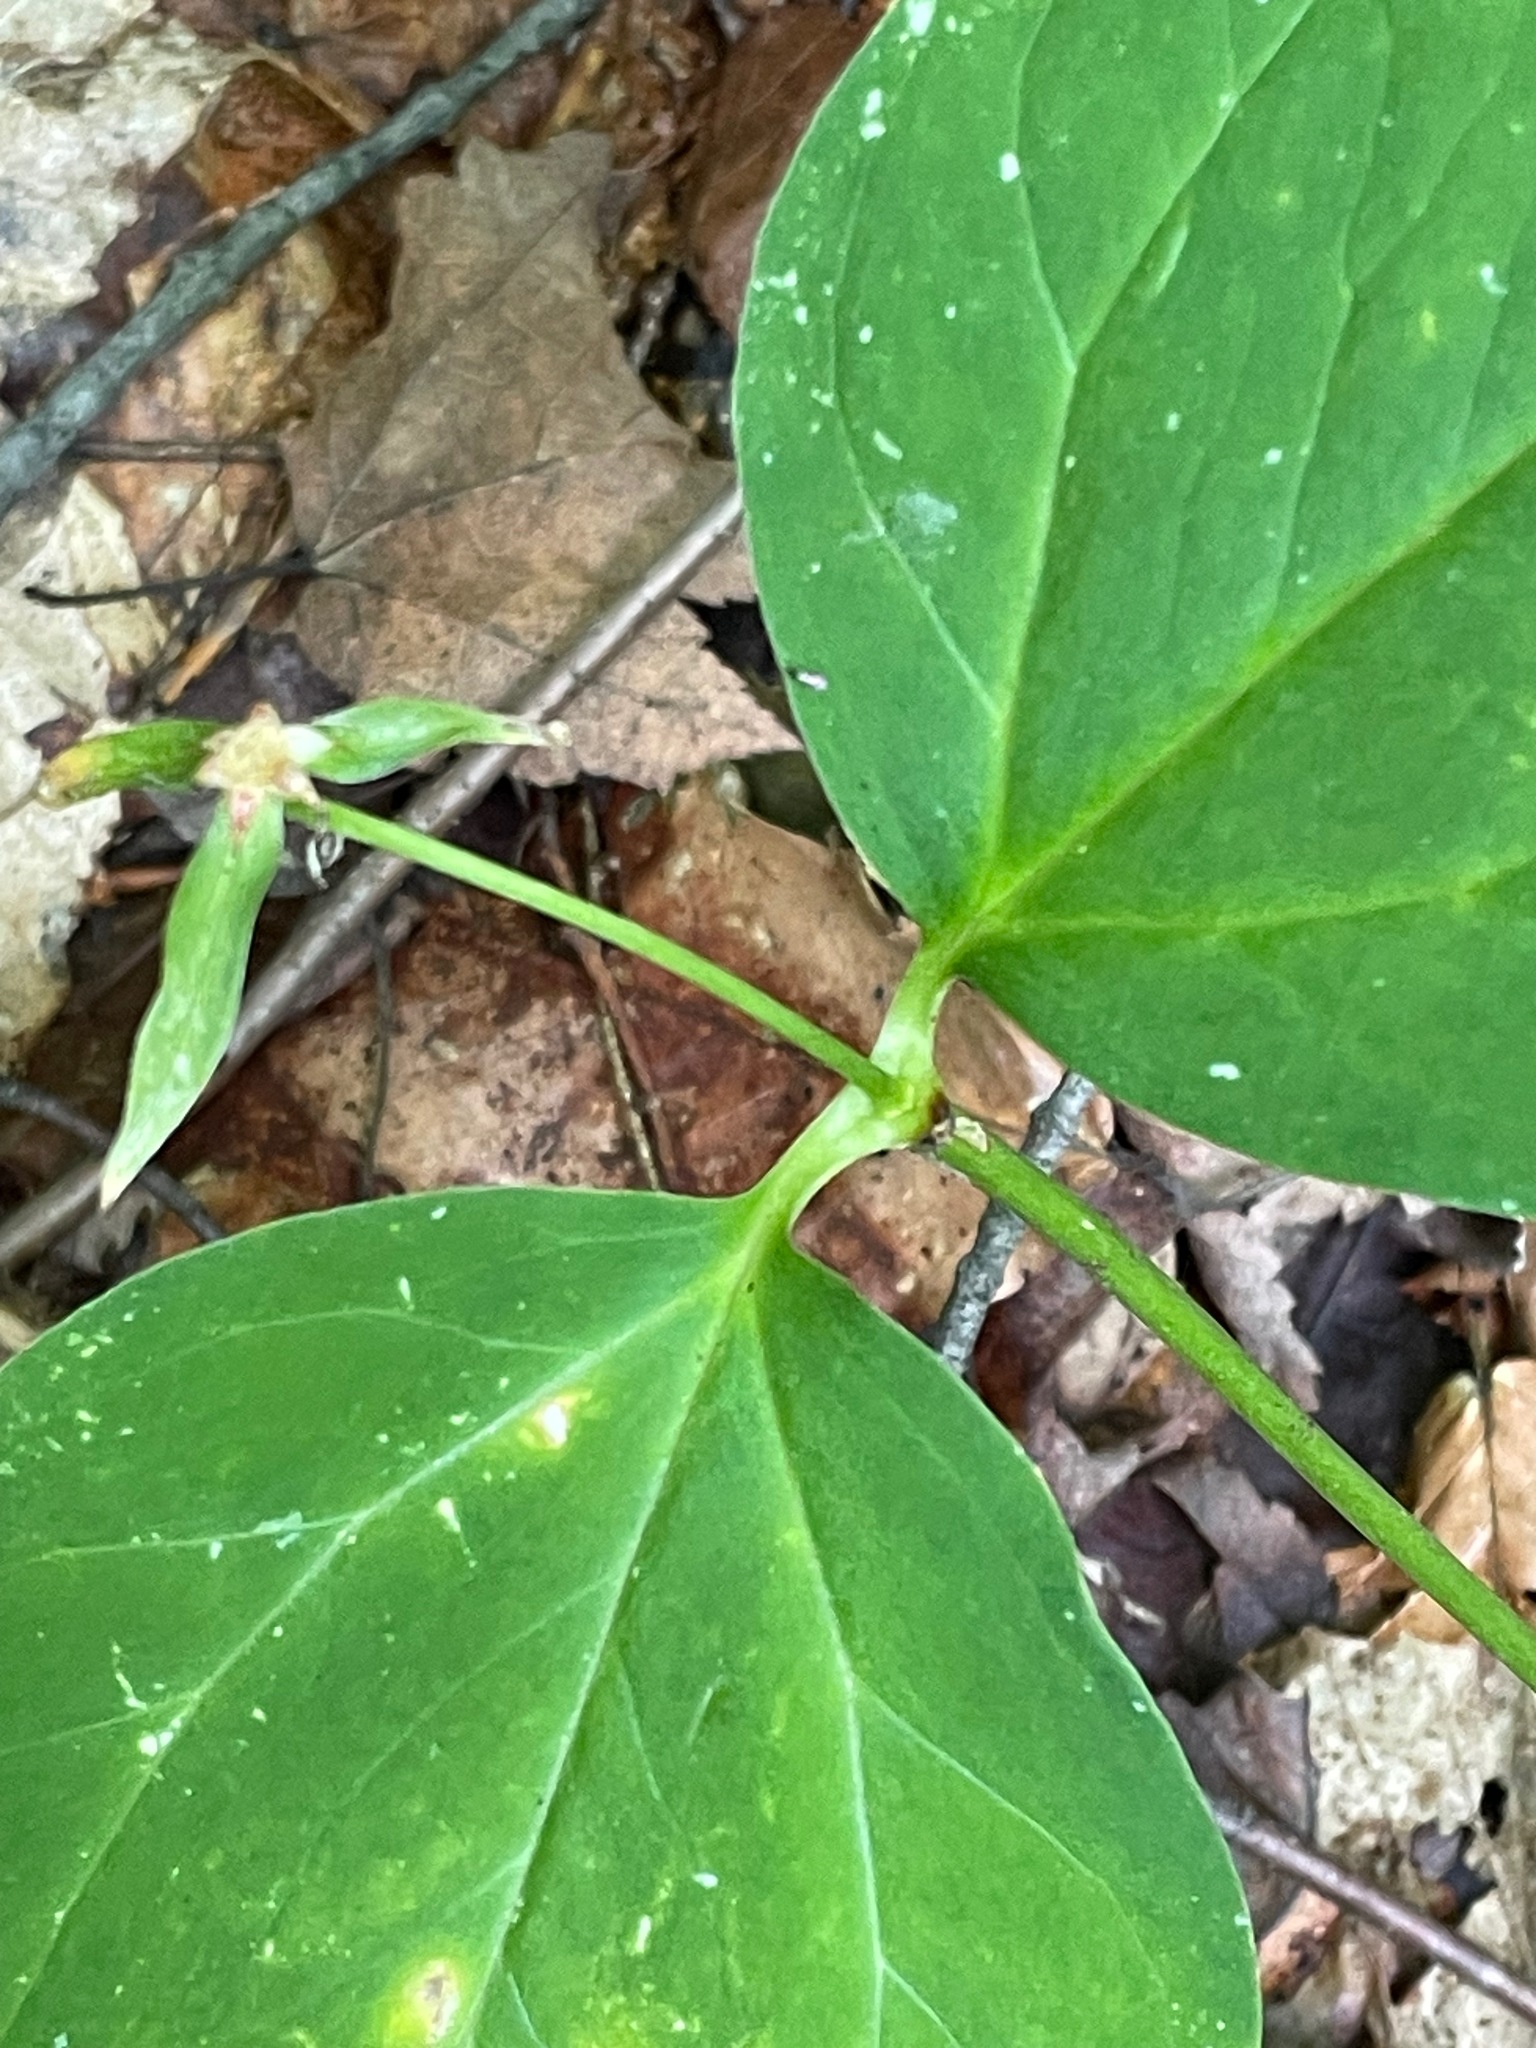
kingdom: Plantae
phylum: Tracheophyta
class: Liliopsida
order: Liliales
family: Melanthiaceae
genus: Trillium
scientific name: Trillium undulatum
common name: Paint trillium
